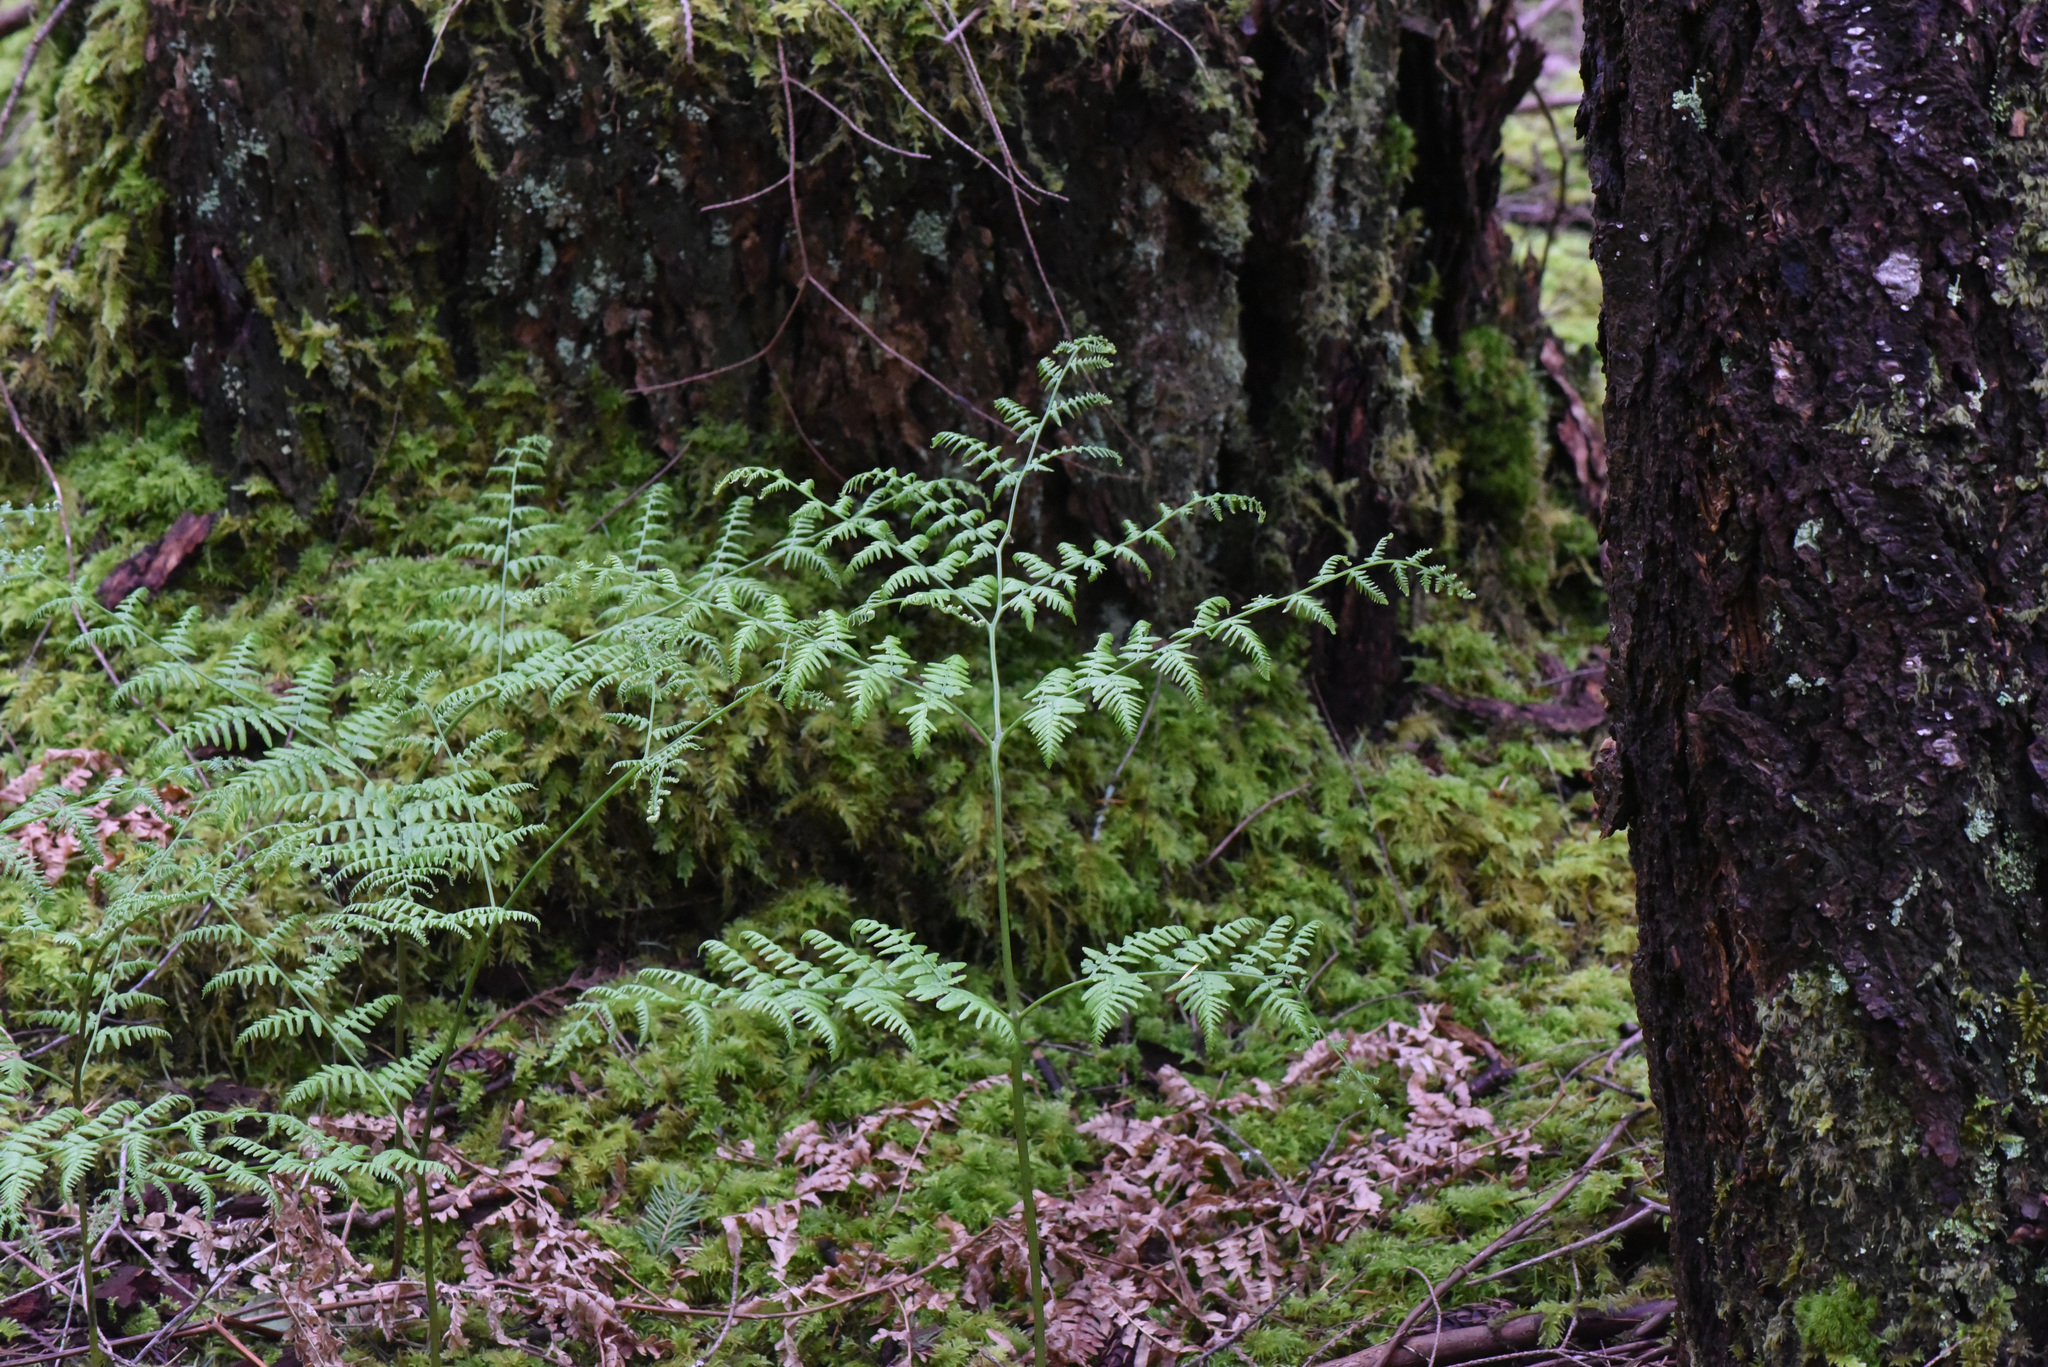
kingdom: Plantae
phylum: Tracheophyta
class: Polypodiopsida
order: Polypodiales
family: Dennstaedtiaceae
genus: Pteridium
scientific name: Pteridium aquilinum
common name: Bracken
